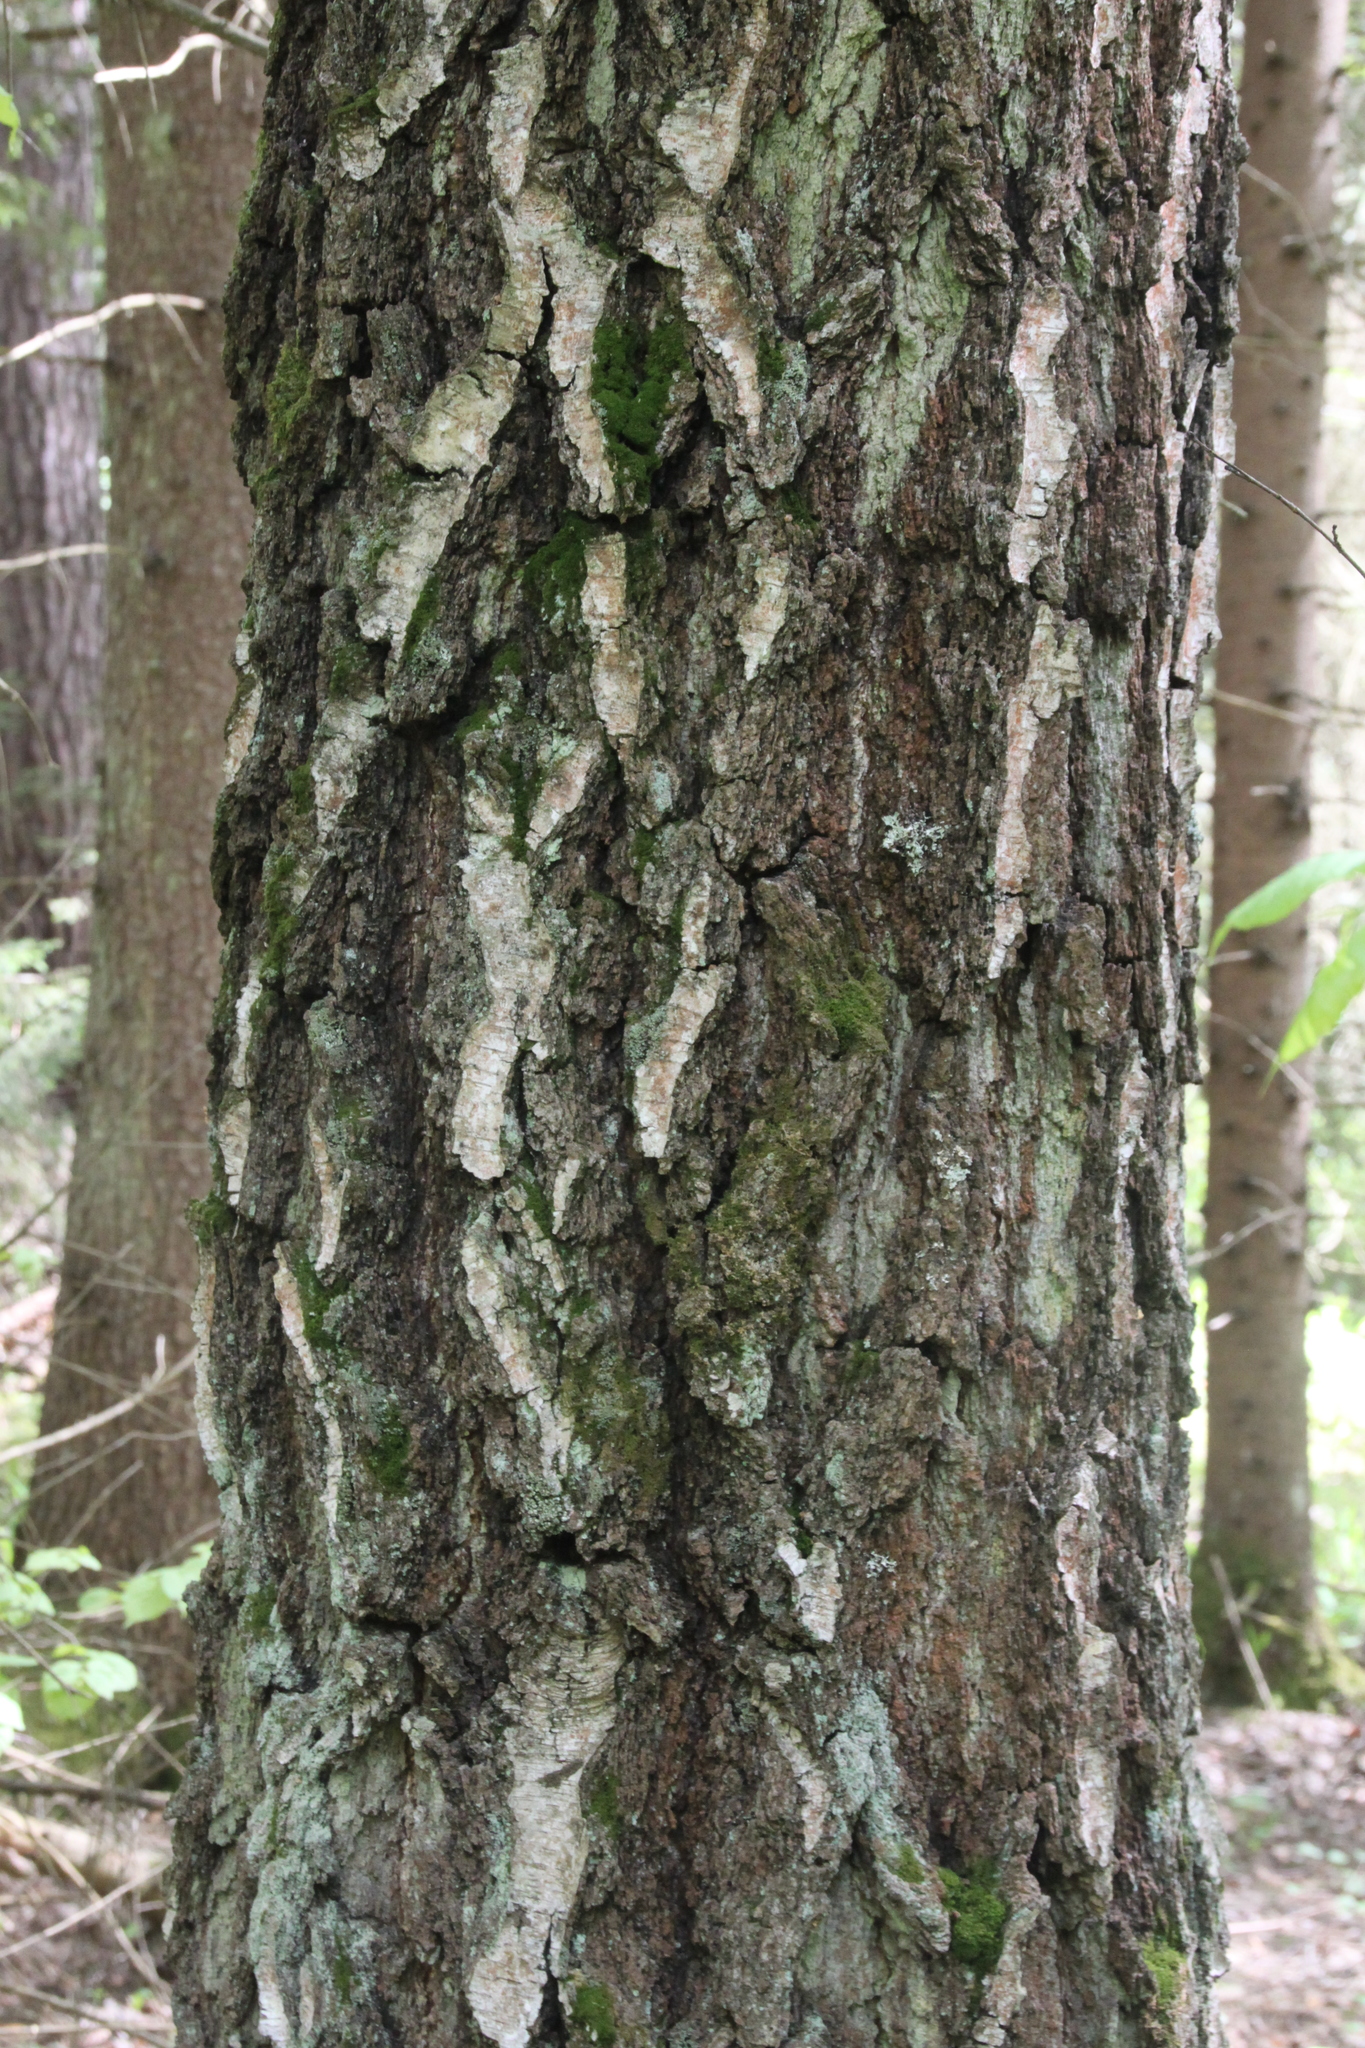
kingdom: Plantae
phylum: Tracheophyta
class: Magnoliopsida
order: Fagales
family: Betulaceae
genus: Betula
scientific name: Betula pendula
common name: Silver birch
